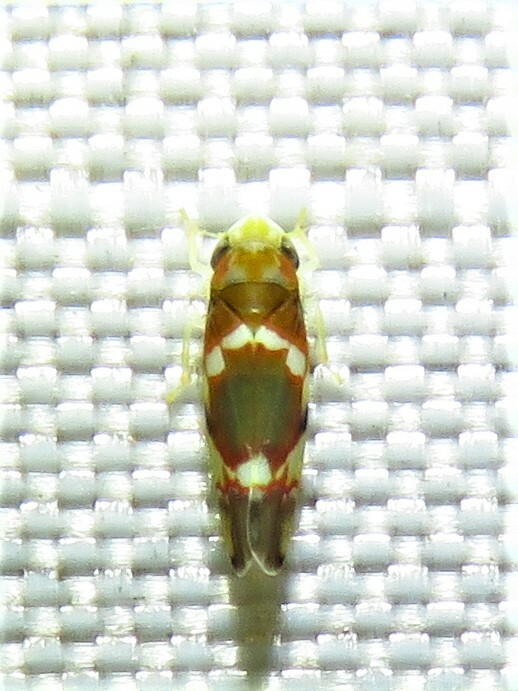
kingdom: Animalia
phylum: Arthropoda
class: Insecta
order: Hemiptera
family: Cicadellidae
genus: Erythroneura
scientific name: Erythroneura vitis
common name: Grapevine leafhopper
